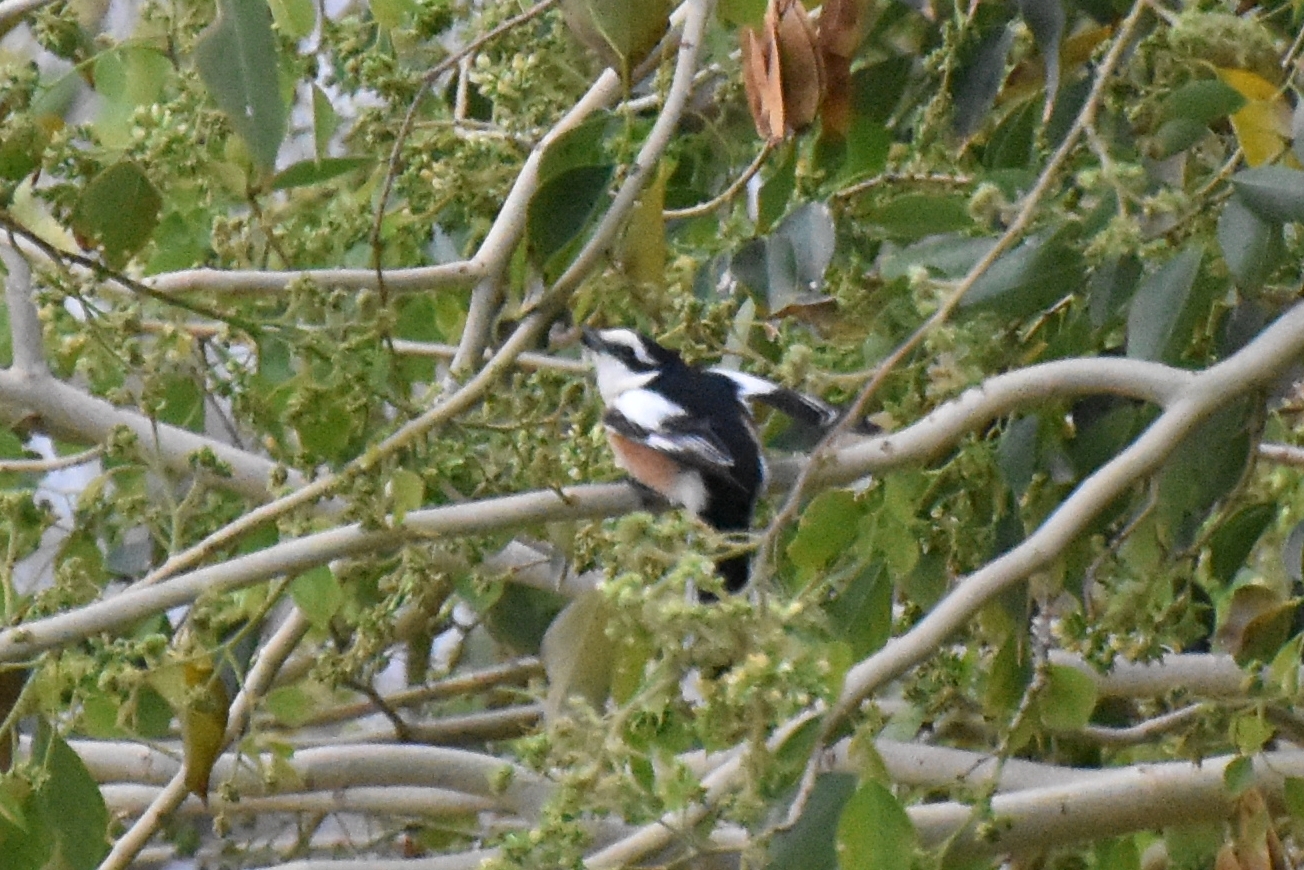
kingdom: Animalia
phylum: Chordata
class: Aves
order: Passeriformes
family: Laniidae
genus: Lanius
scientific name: Lanius nubicus
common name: Masked shrike
